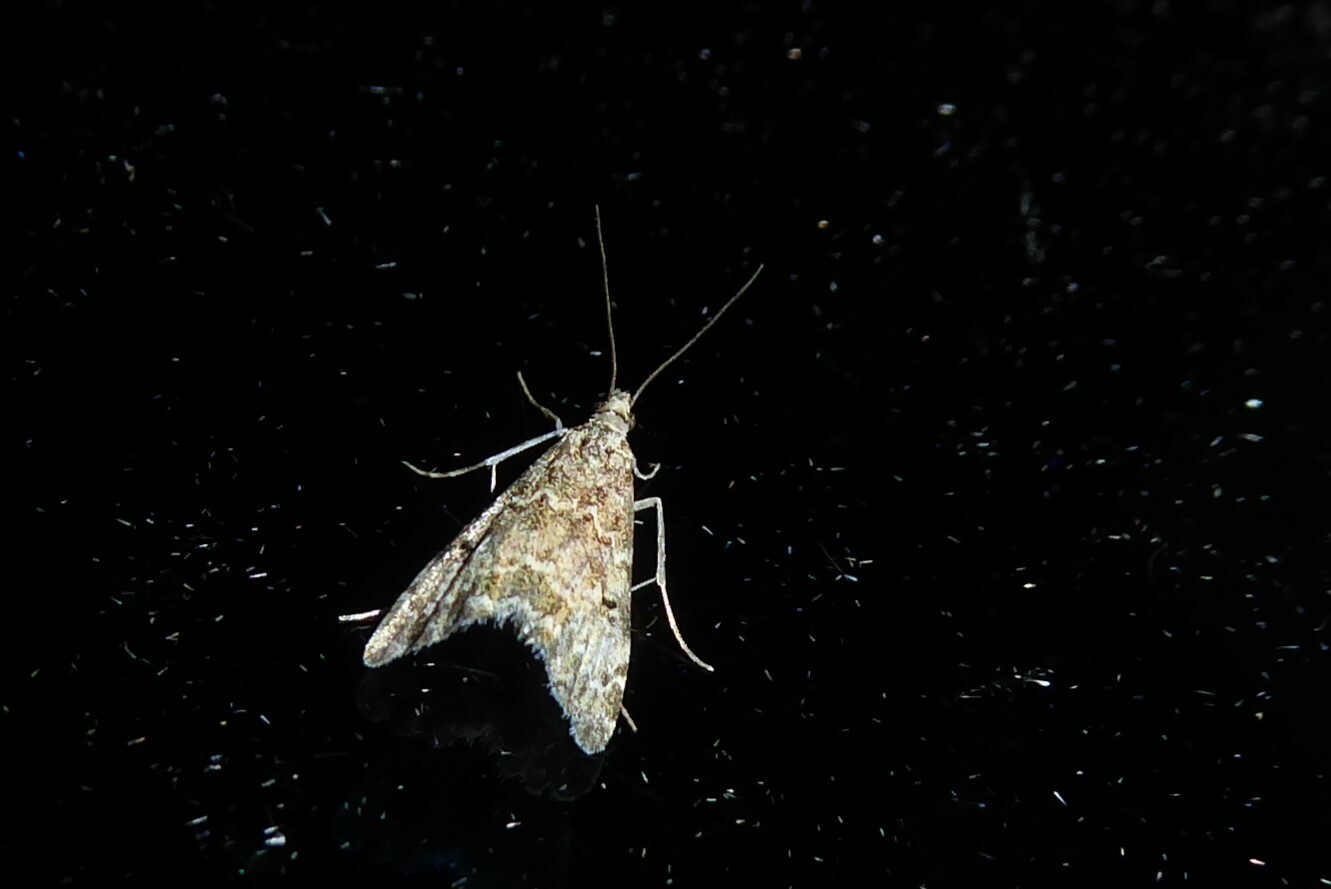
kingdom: Animalia
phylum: Arthropoda
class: Insecta
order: Lepidoptera
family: Crambidae
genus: Glaucocharis
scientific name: Glaucocharis elaina
